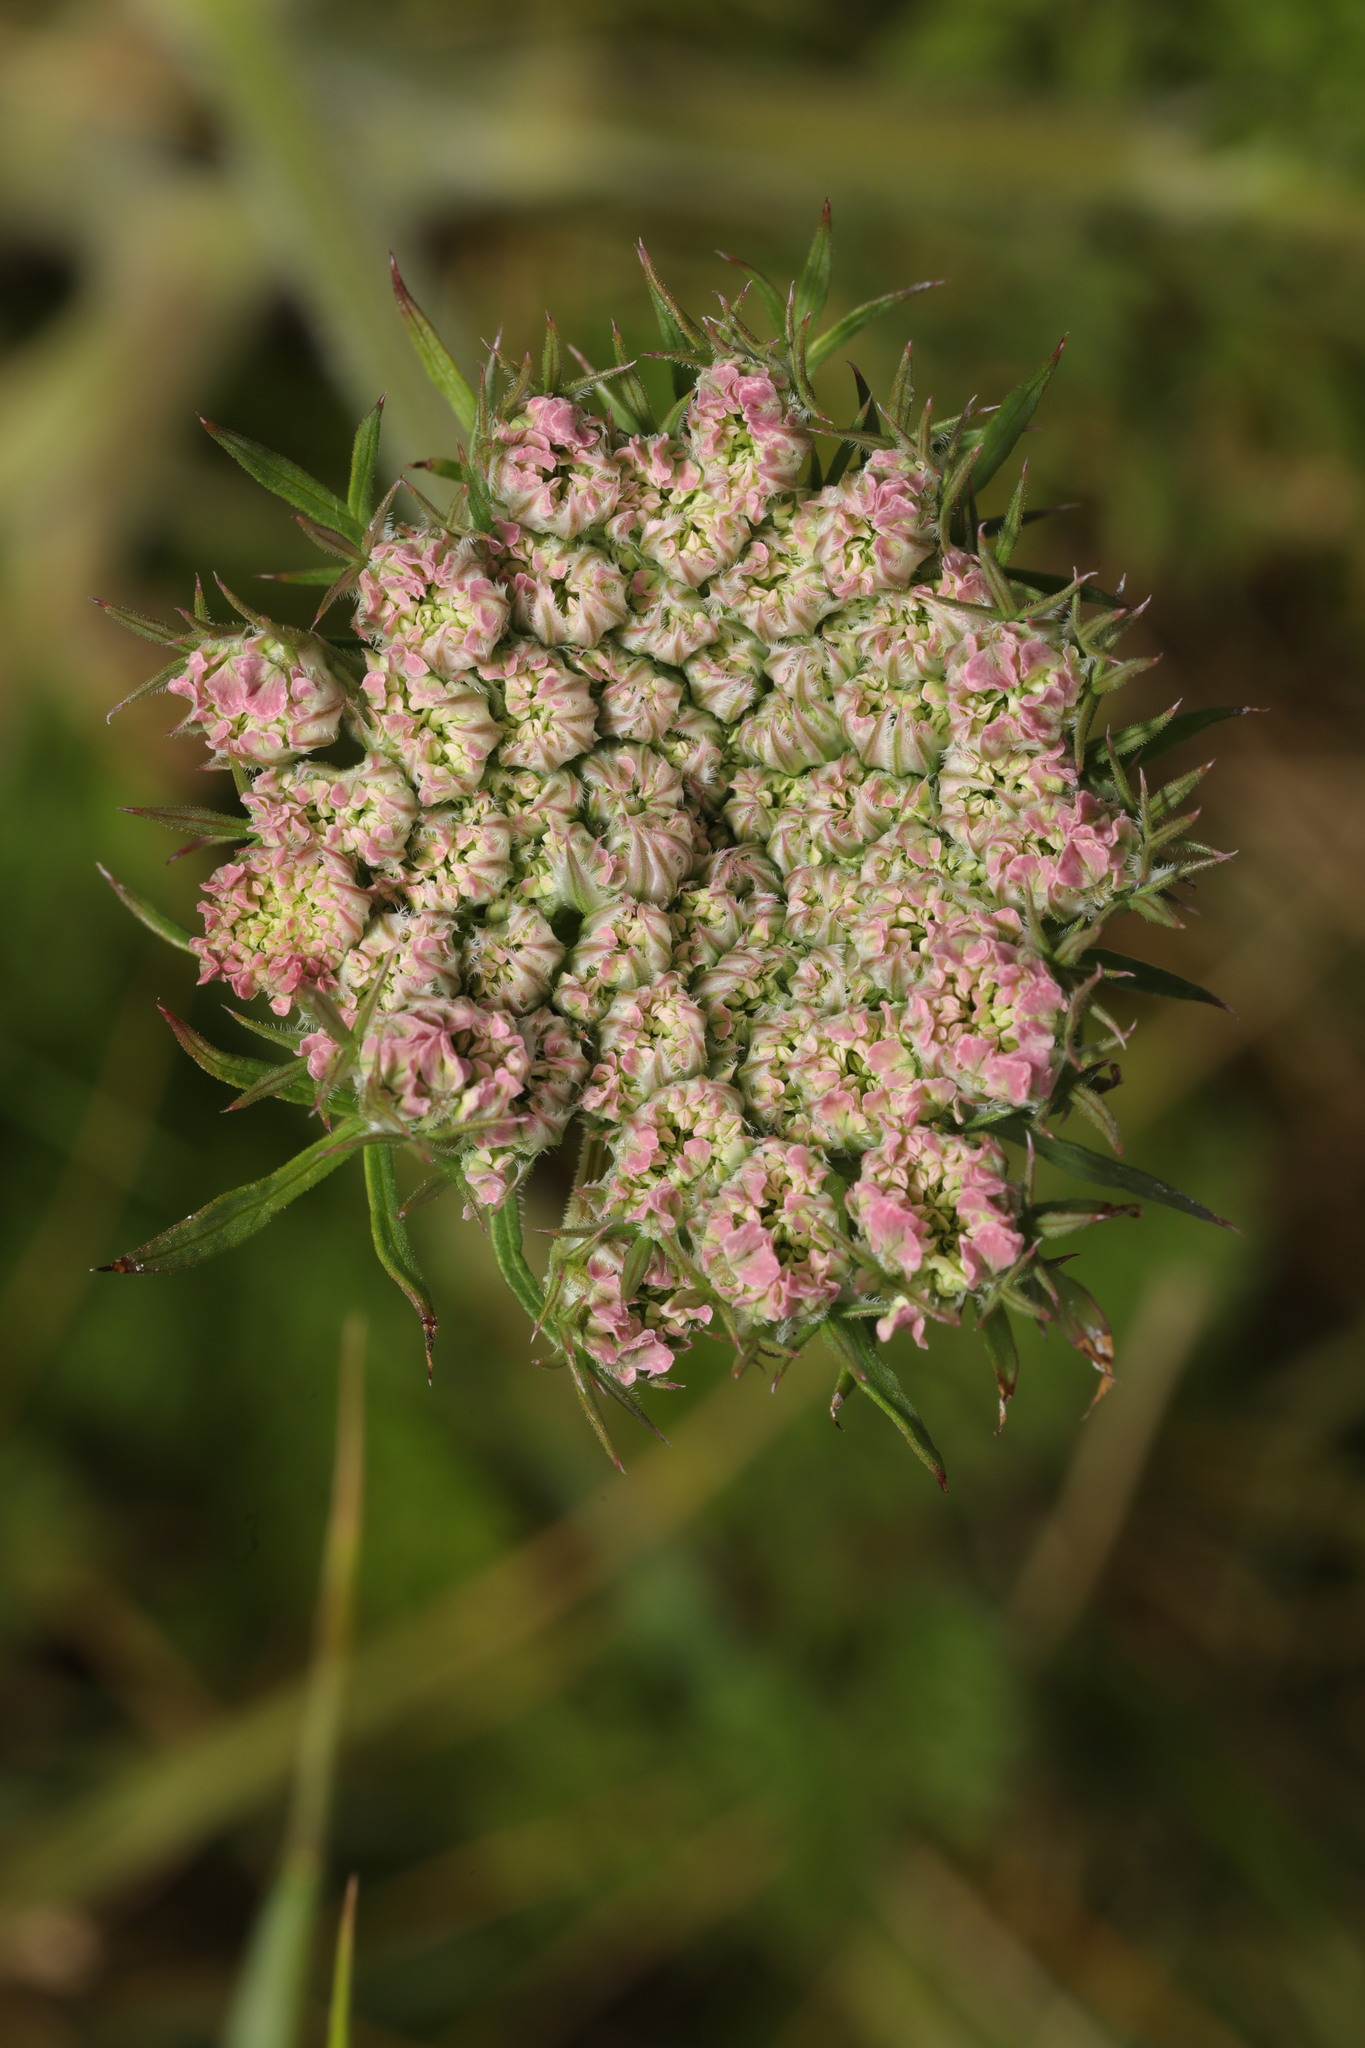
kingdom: Plantae
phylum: Tracheophyta
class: Magnoliopsida
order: Apiales
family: Apiaceae
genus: Daucus
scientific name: Daucus carota
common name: Wild carrot
